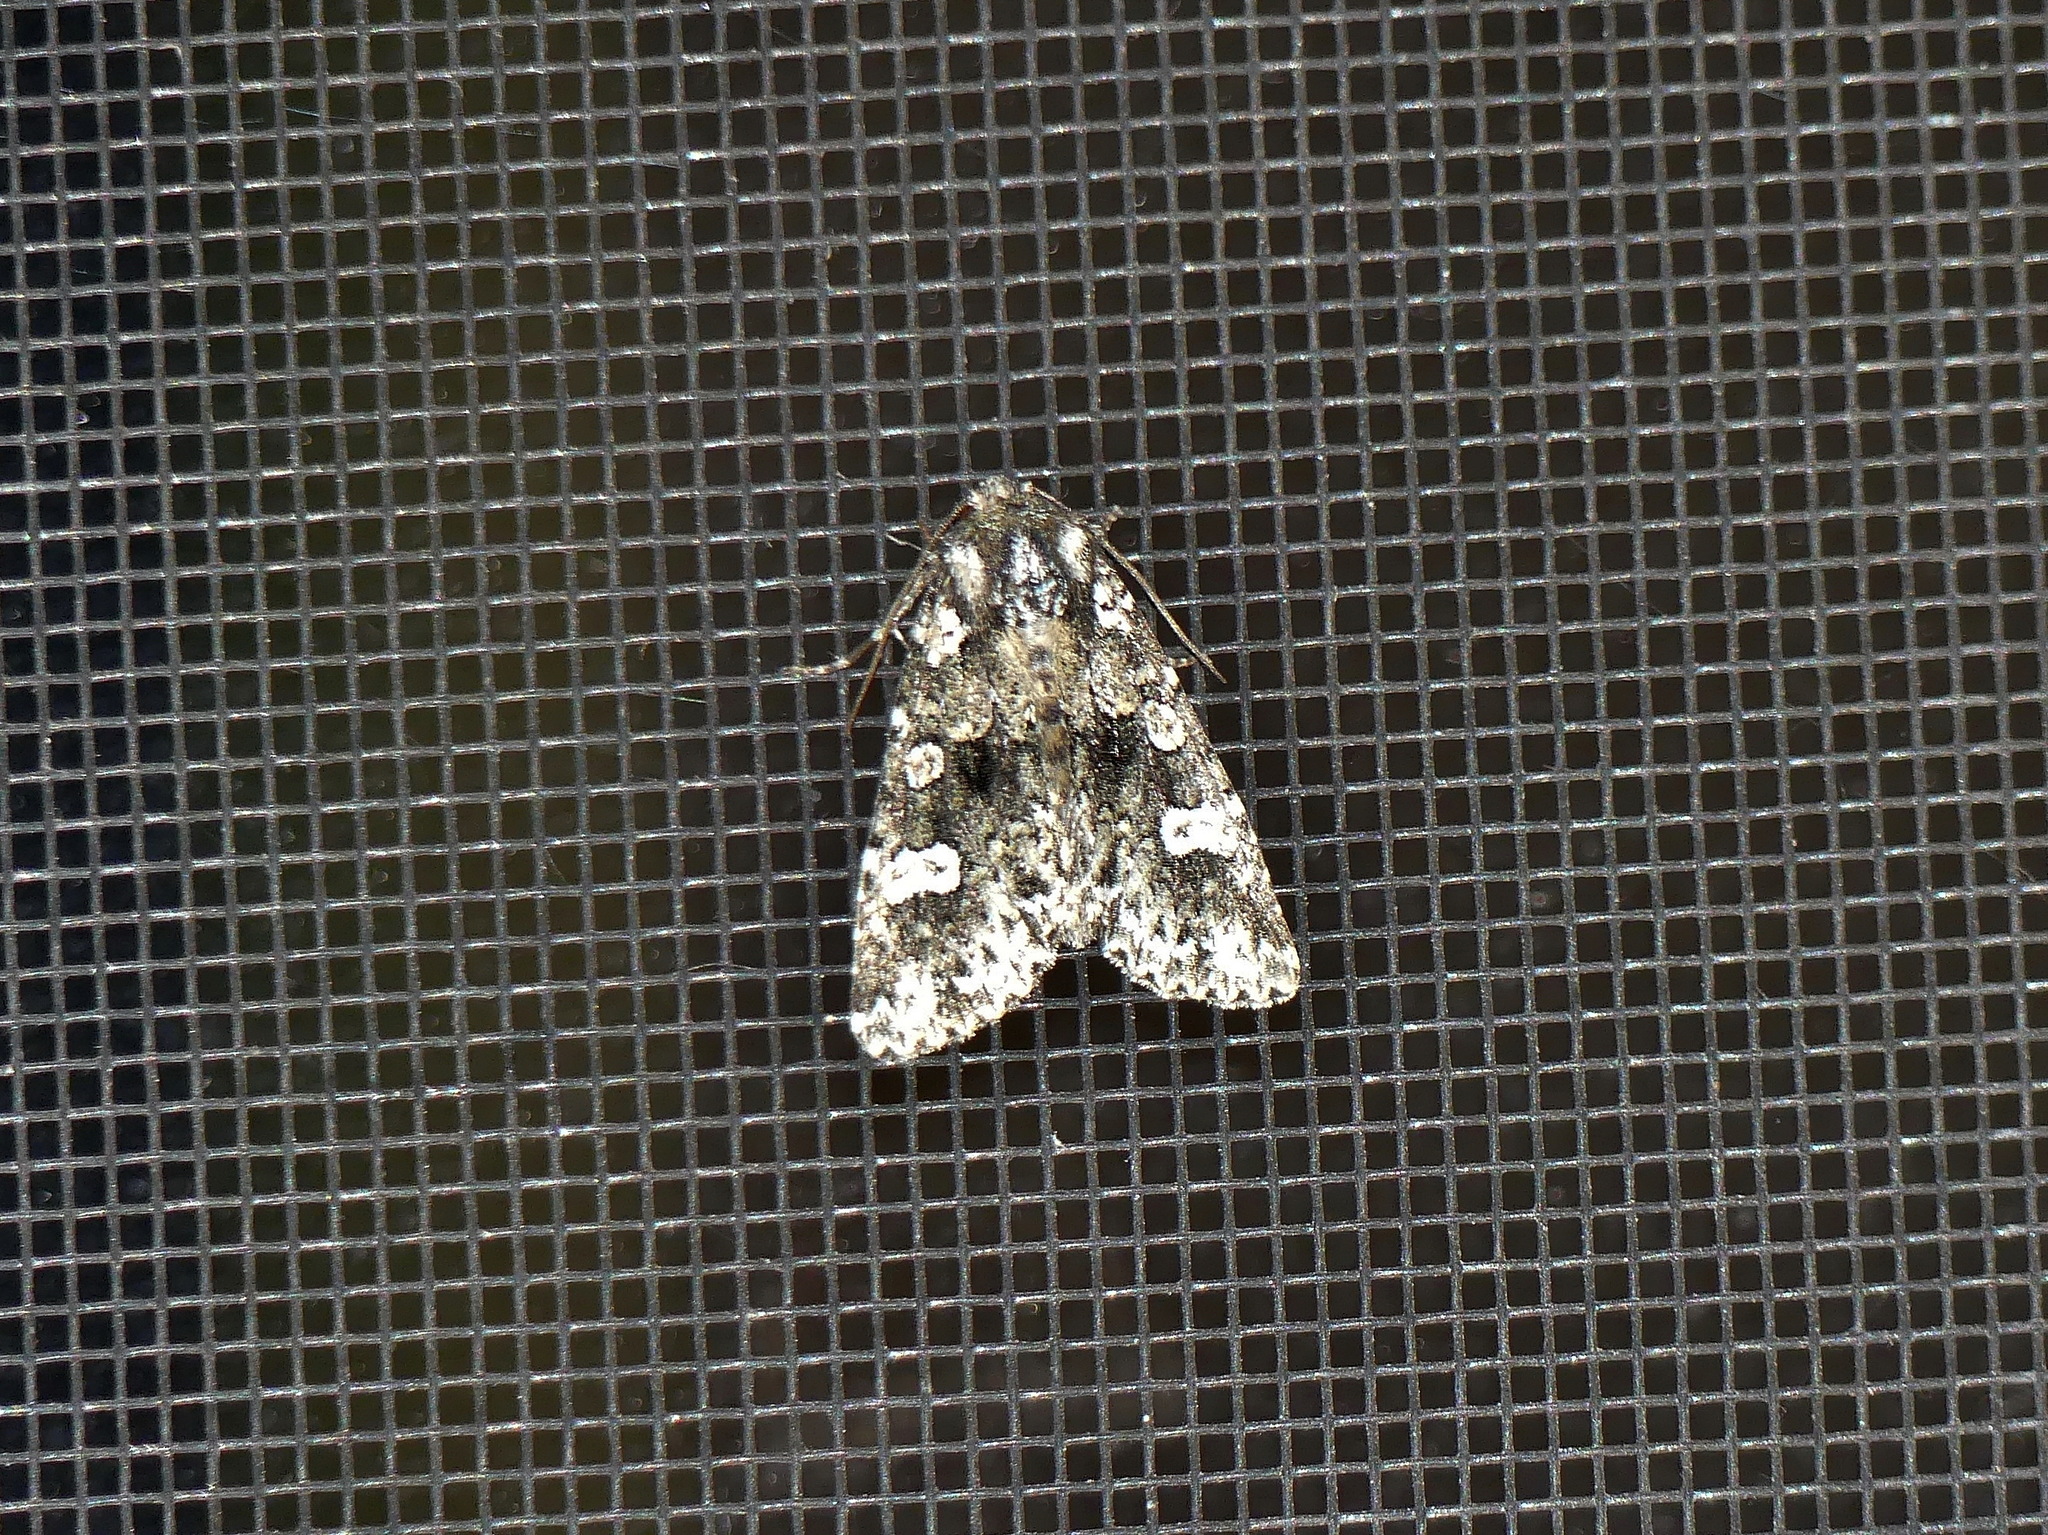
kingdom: Animalia
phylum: Arthropoda
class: Insecta
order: Lepidoptera
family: Noctuidae
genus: Melanchra
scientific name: Melanchra adjuncta
